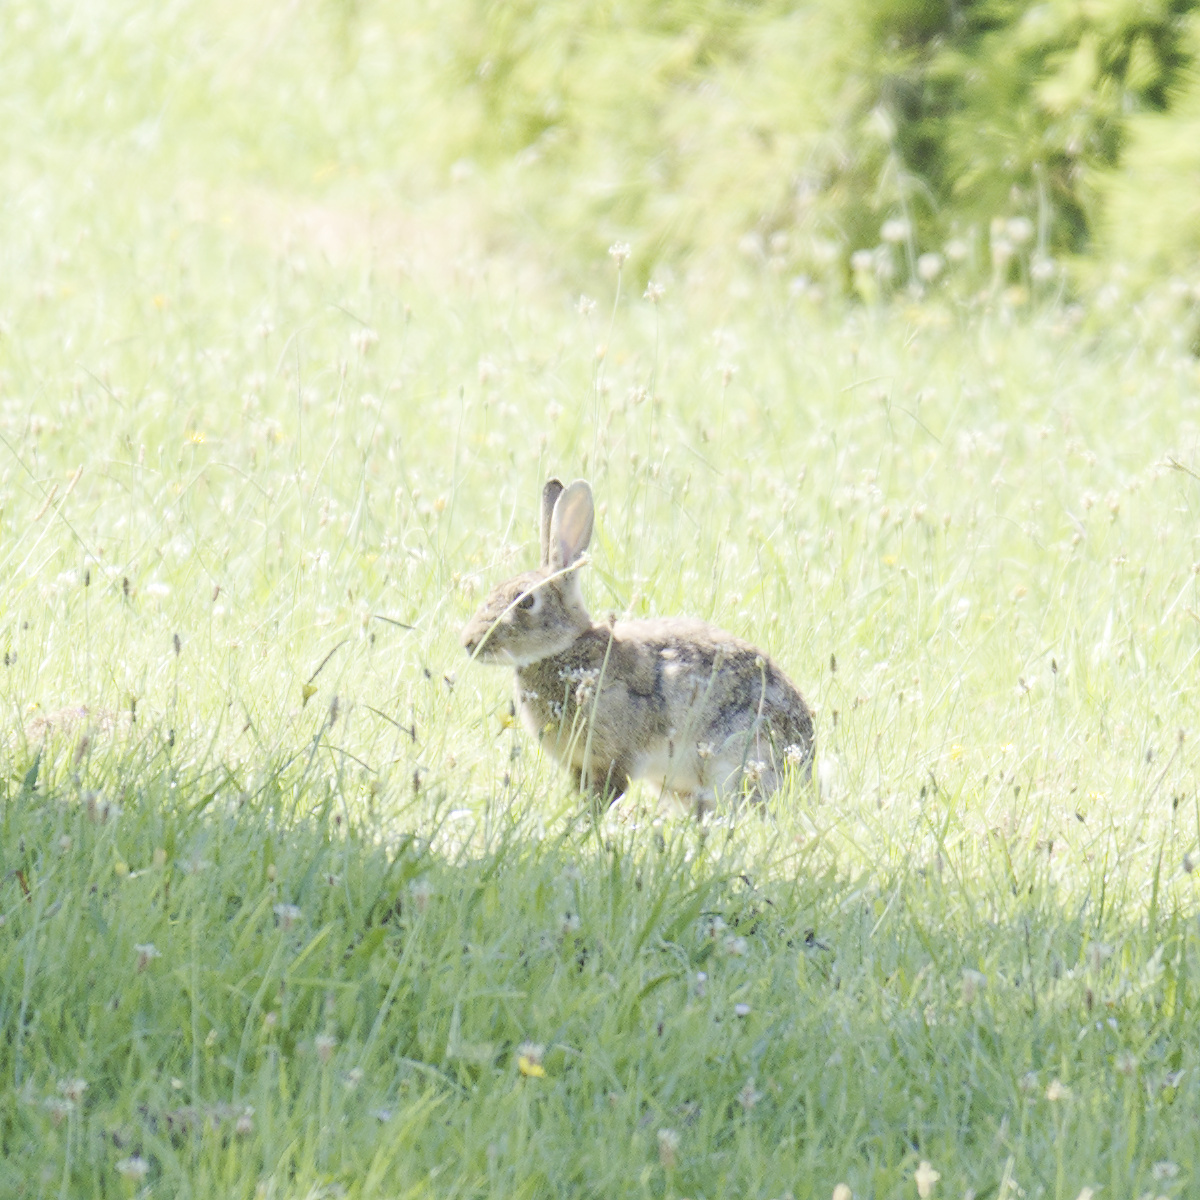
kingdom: Animalia
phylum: Chordata
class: Mammalia
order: Lagomorpha
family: Leporidae
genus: Oryctolagus
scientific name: Oryctolagus cuniculus
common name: European rabbit
